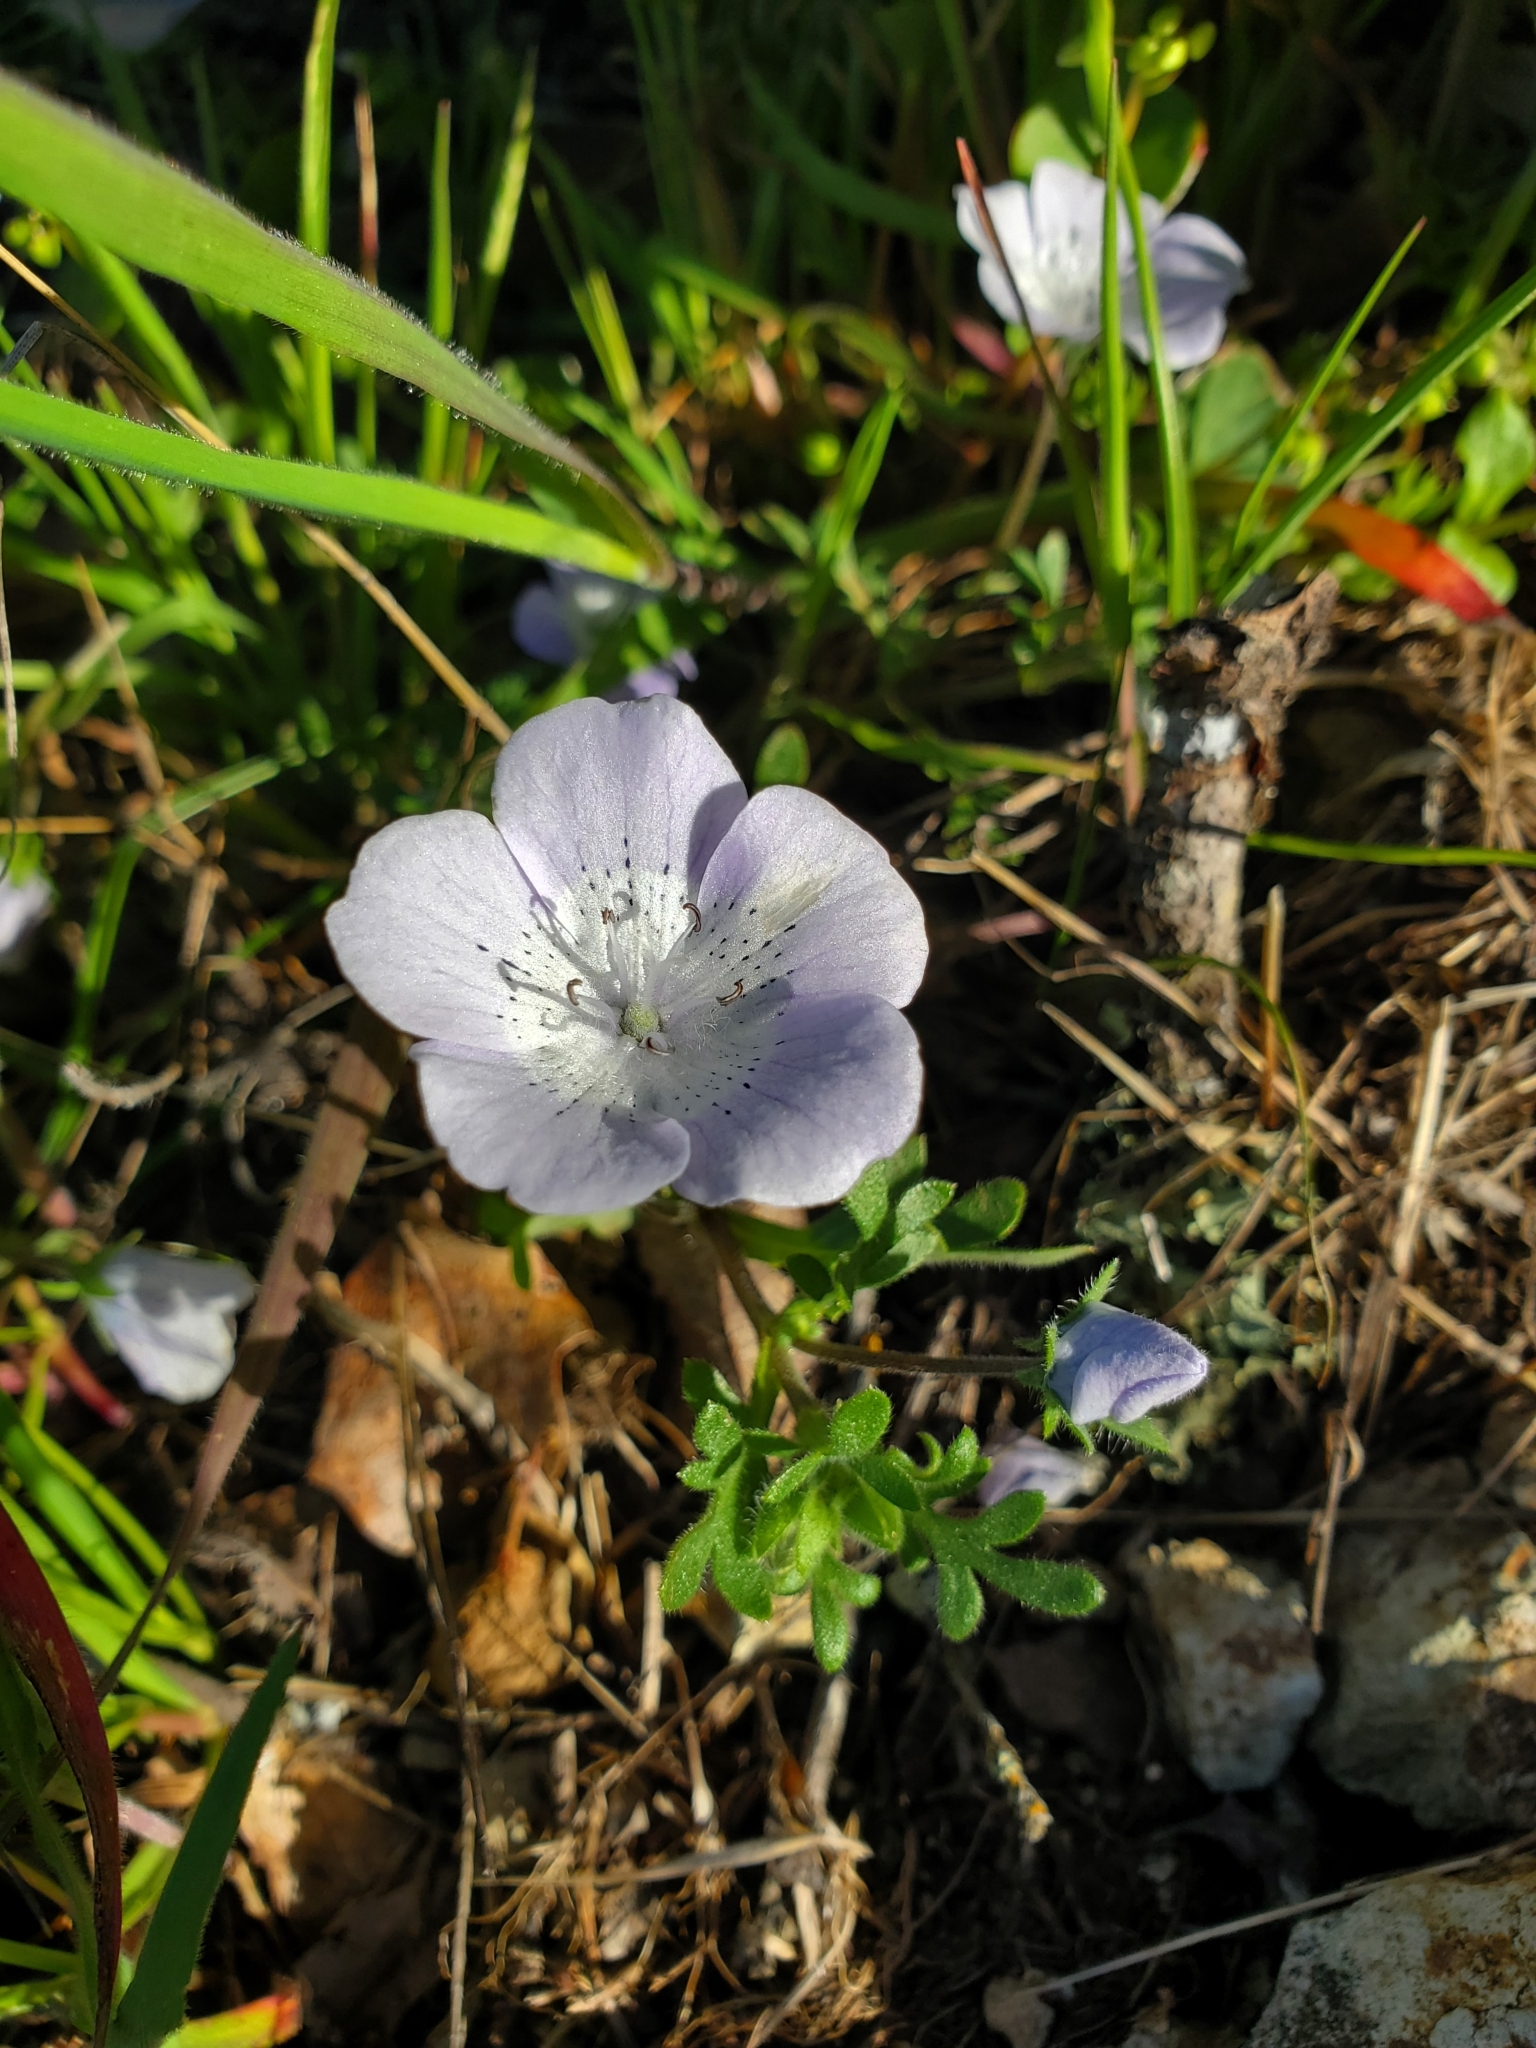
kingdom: Plantae
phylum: Tracheophyta
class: Magnoliopsida
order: Boraginales
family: Hydrophyllaceae
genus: Nemophila
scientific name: Nemophila menziesii
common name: Baby's-blue-eyes
